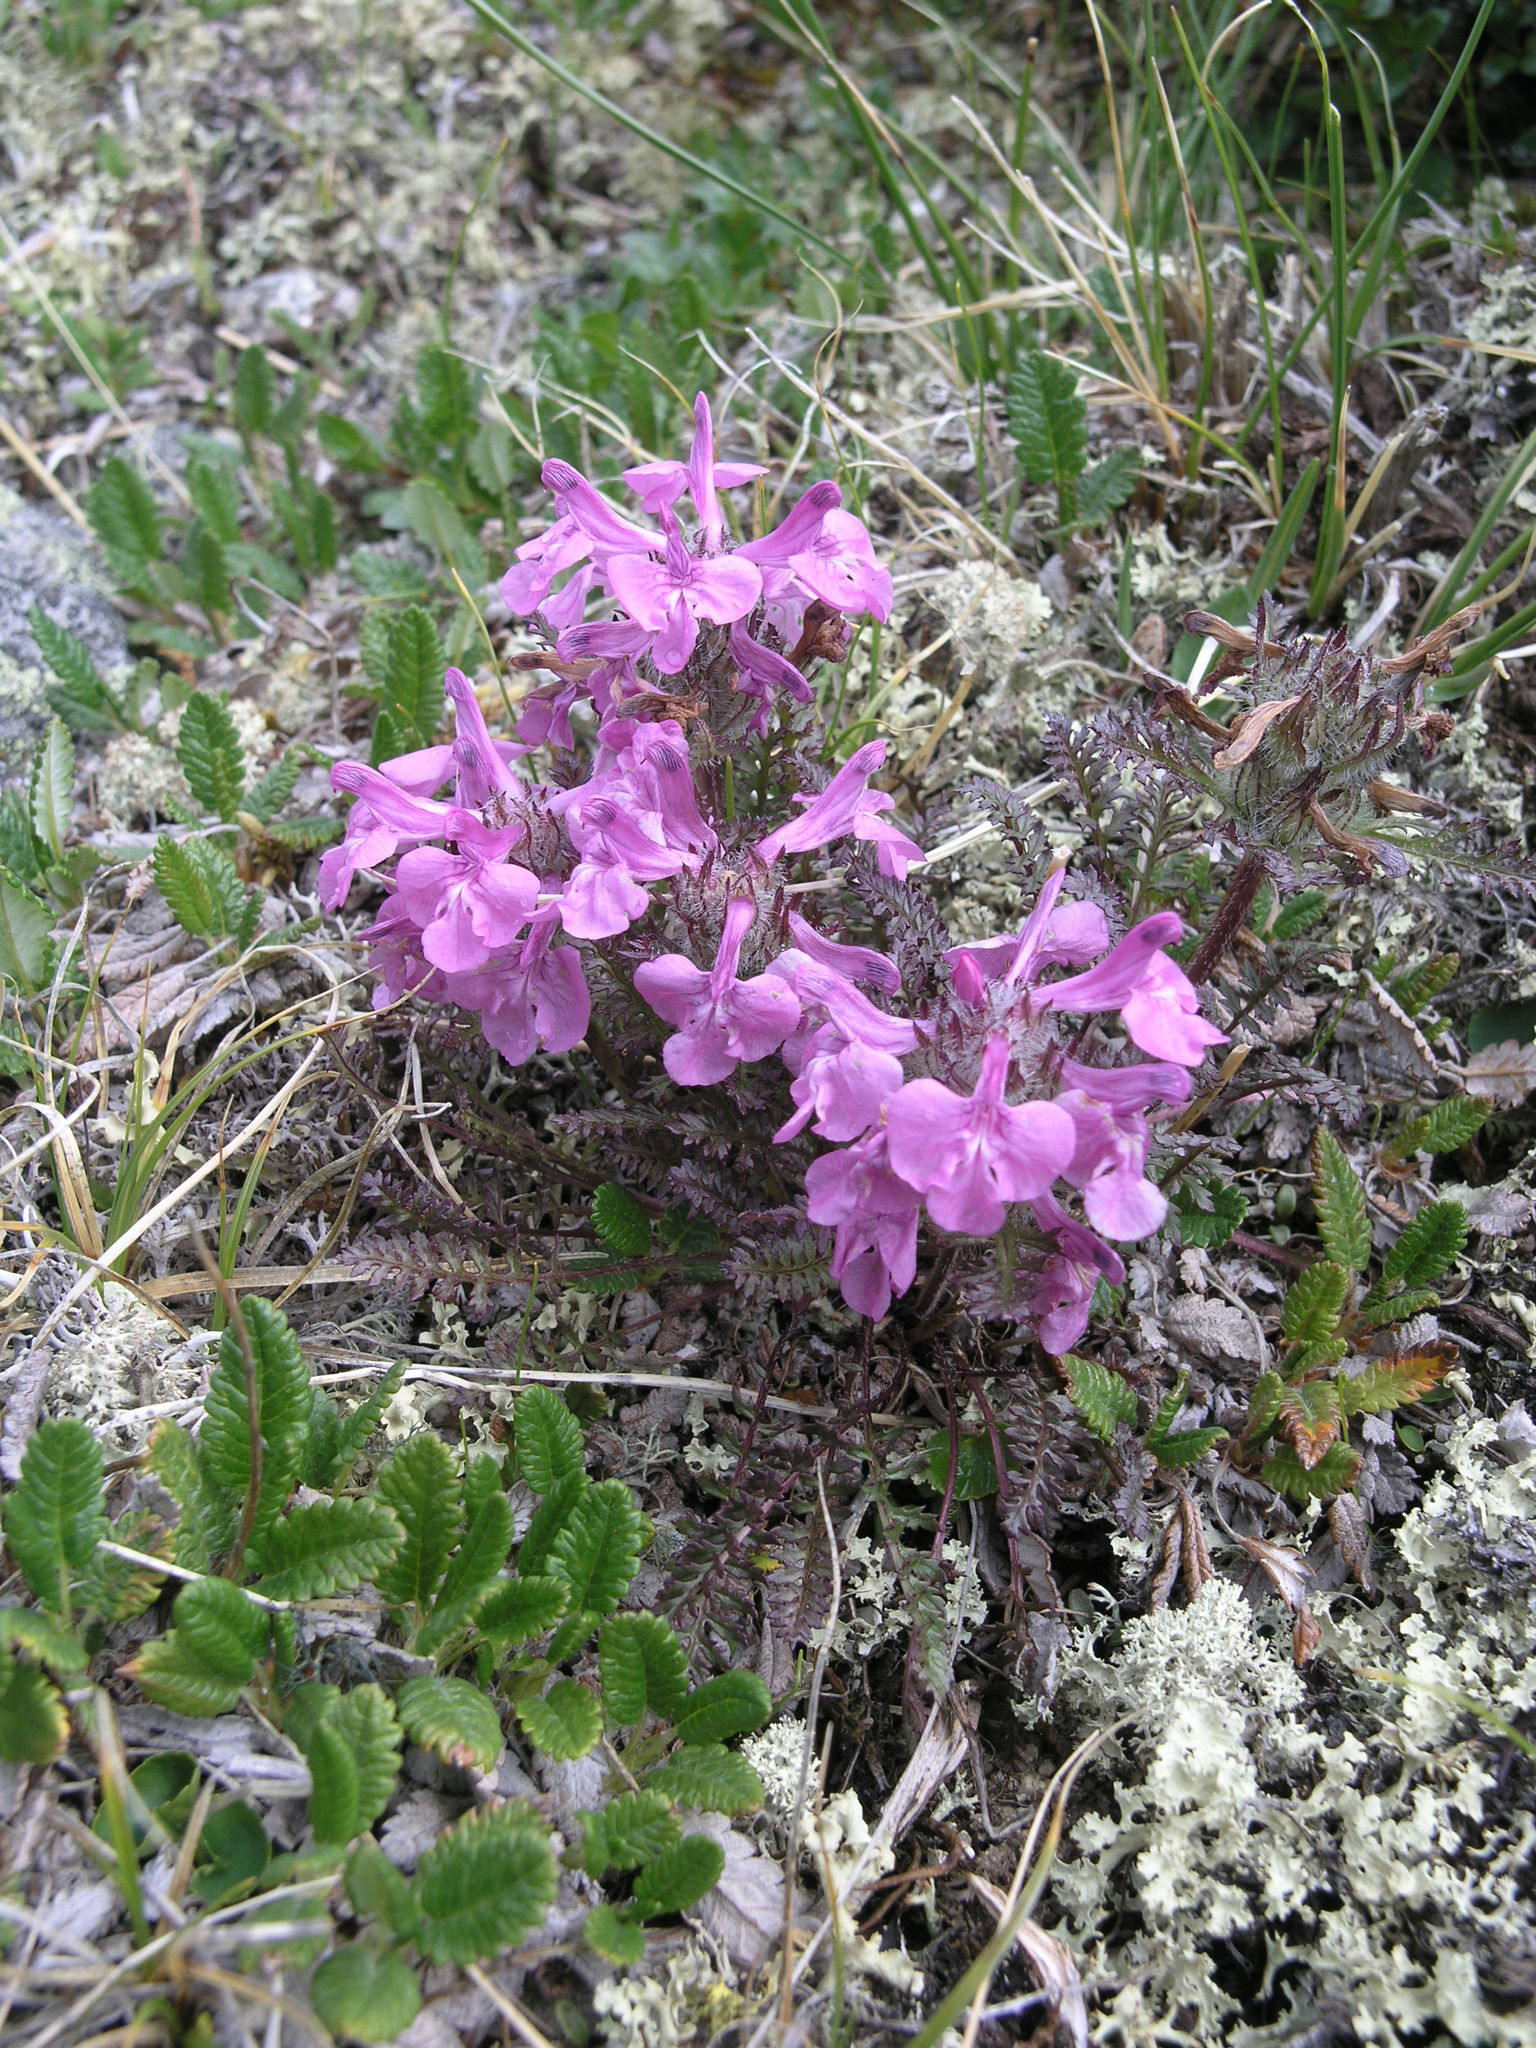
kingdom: Plantae
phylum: Tracheophyta
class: Magnoliopsida
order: Lamiales
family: Orobanchaceae
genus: Pedicularis
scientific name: Pedicularis anthemifolia
